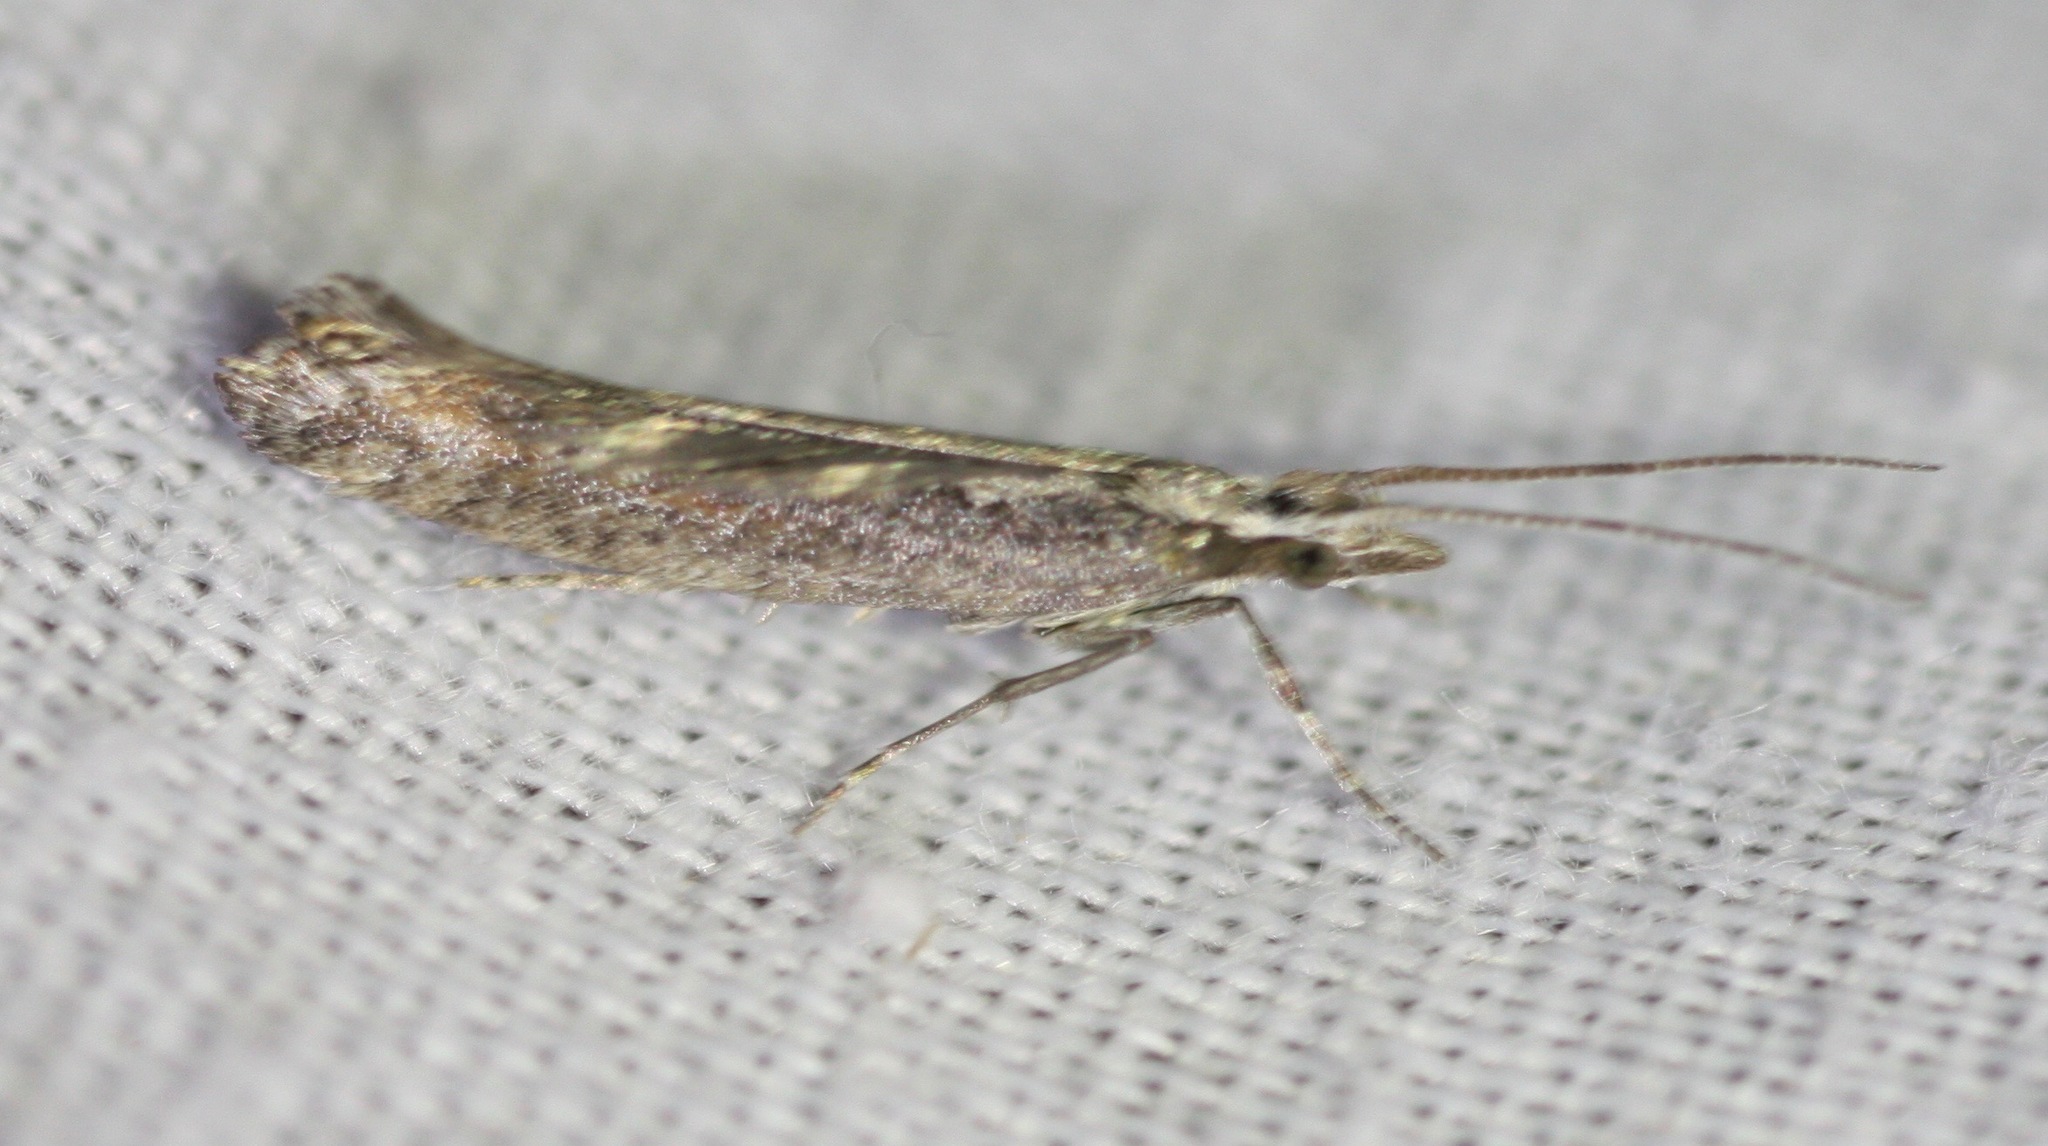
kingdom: Animalia
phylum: Arthropoda
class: Insecta
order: Lepidoptera
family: Plutellidae
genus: Plutella
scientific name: Plutella xylostella
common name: Diamond-back moth
